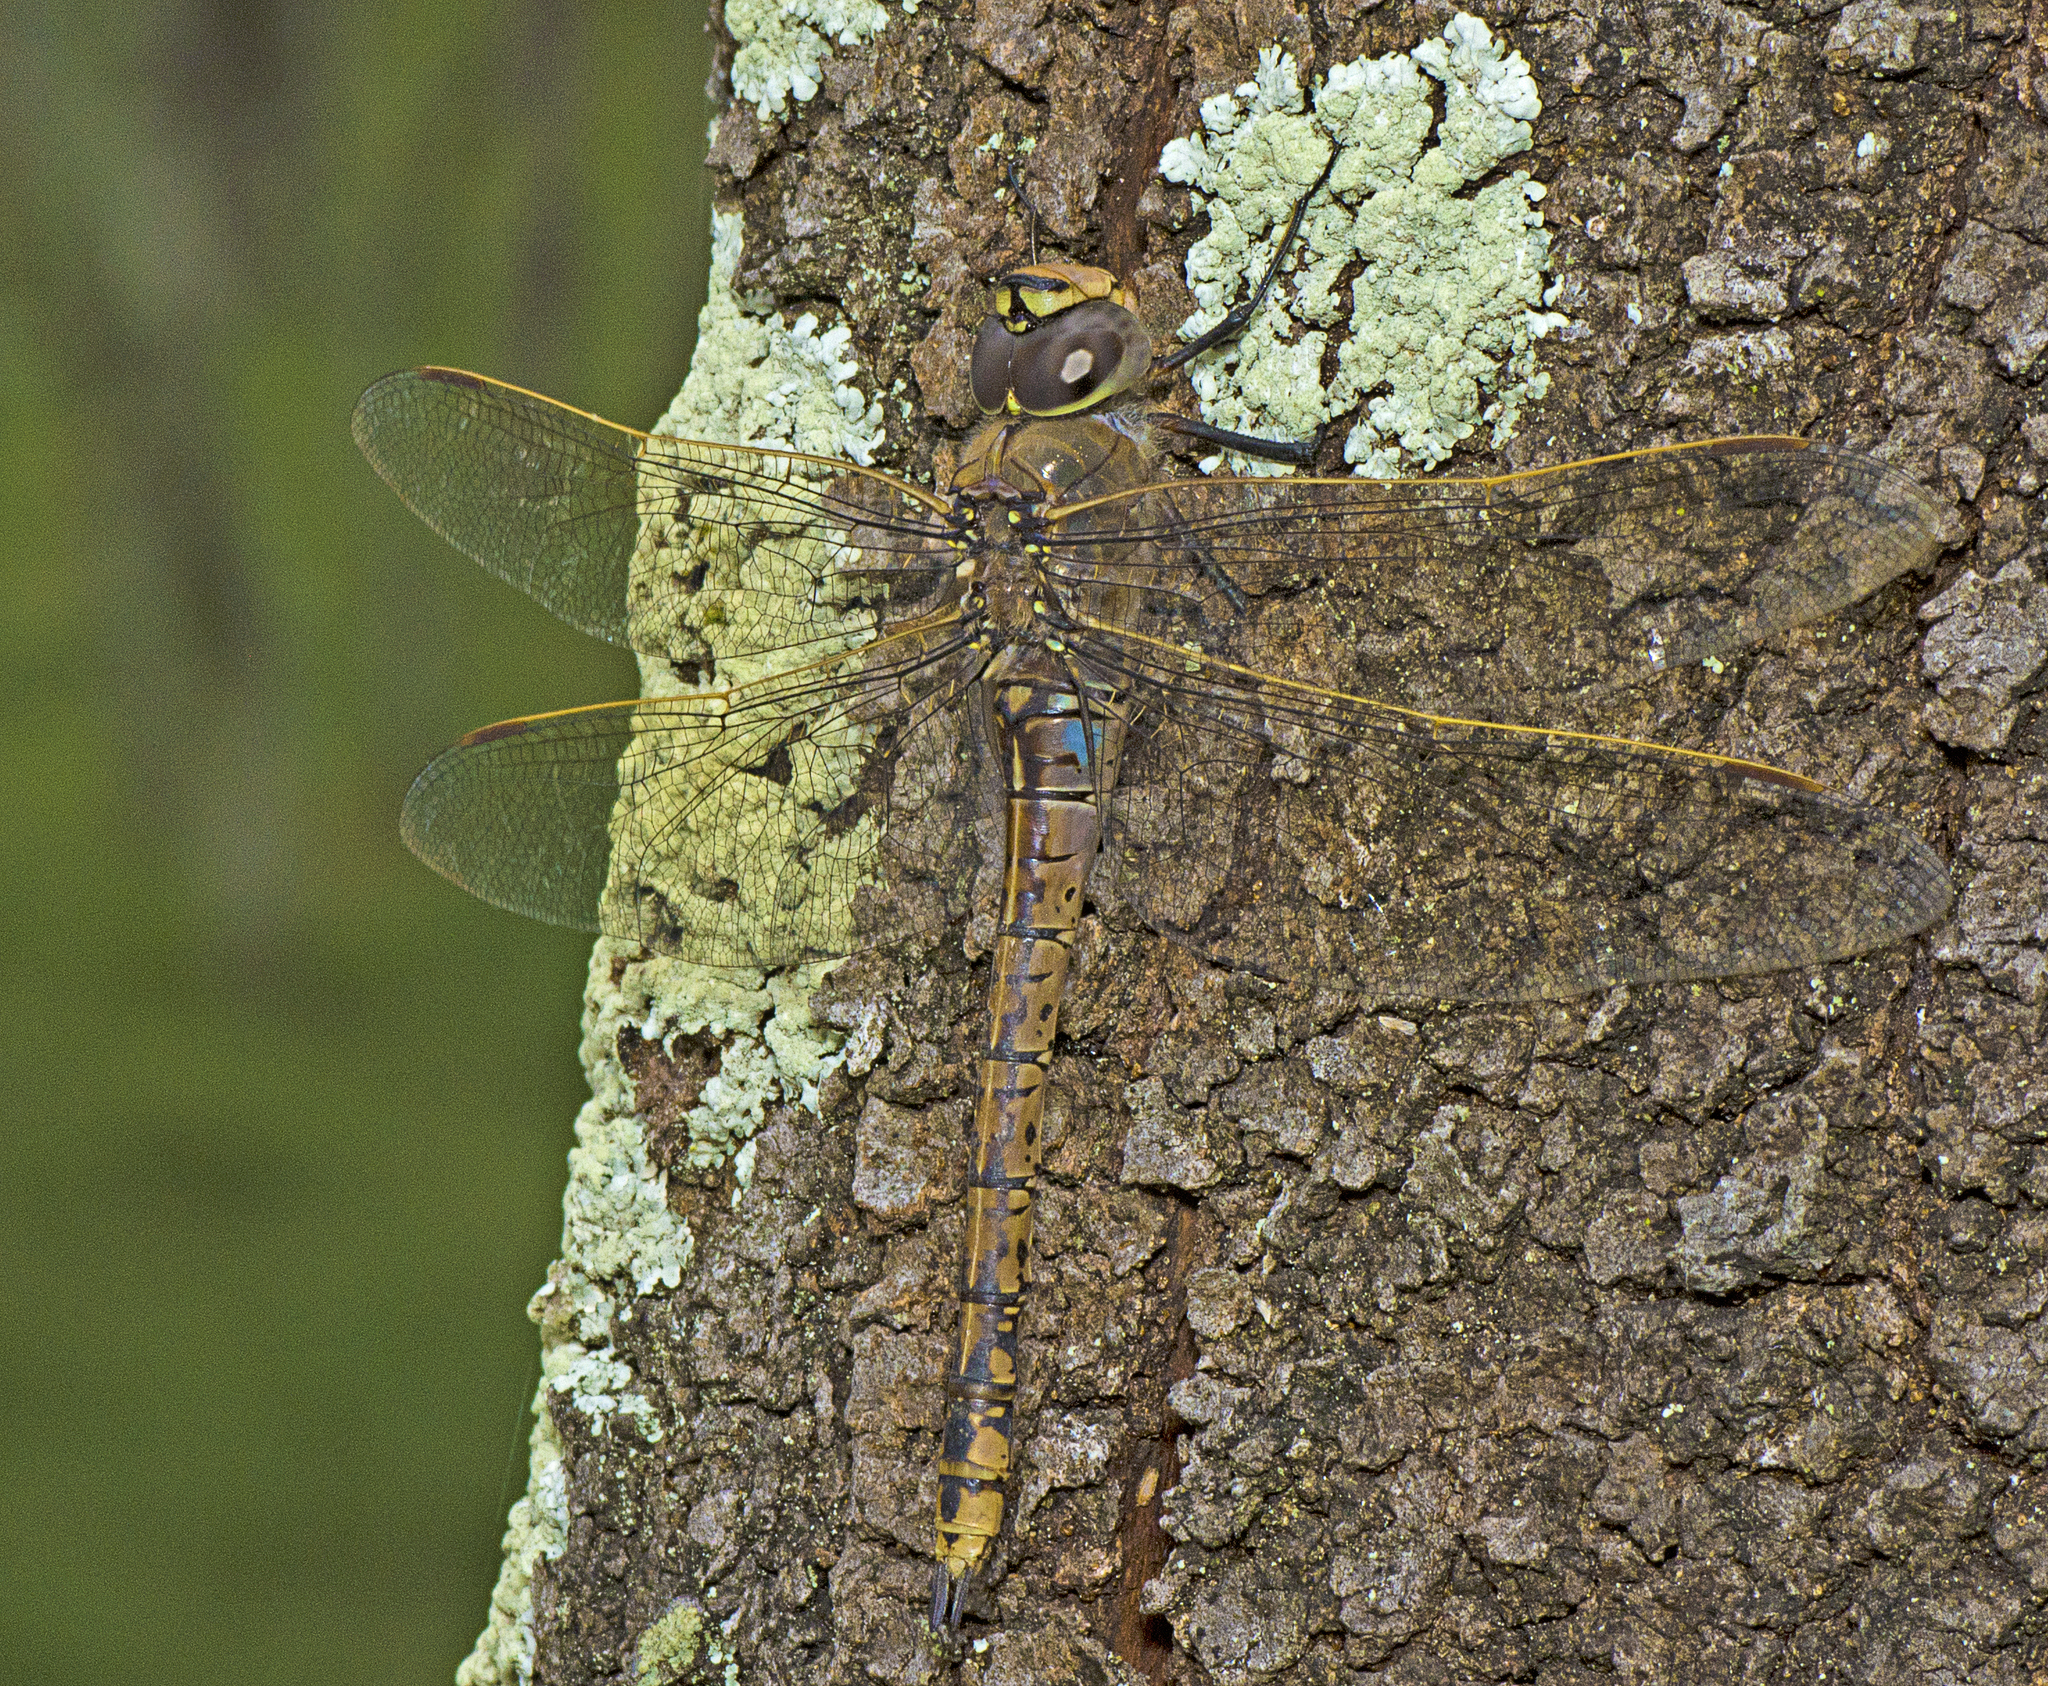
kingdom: Animalia
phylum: Arthropoda
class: Insecta
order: Odonata
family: Aeshnidae
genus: Anax
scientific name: Anax papuensis
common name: Australian emperor
